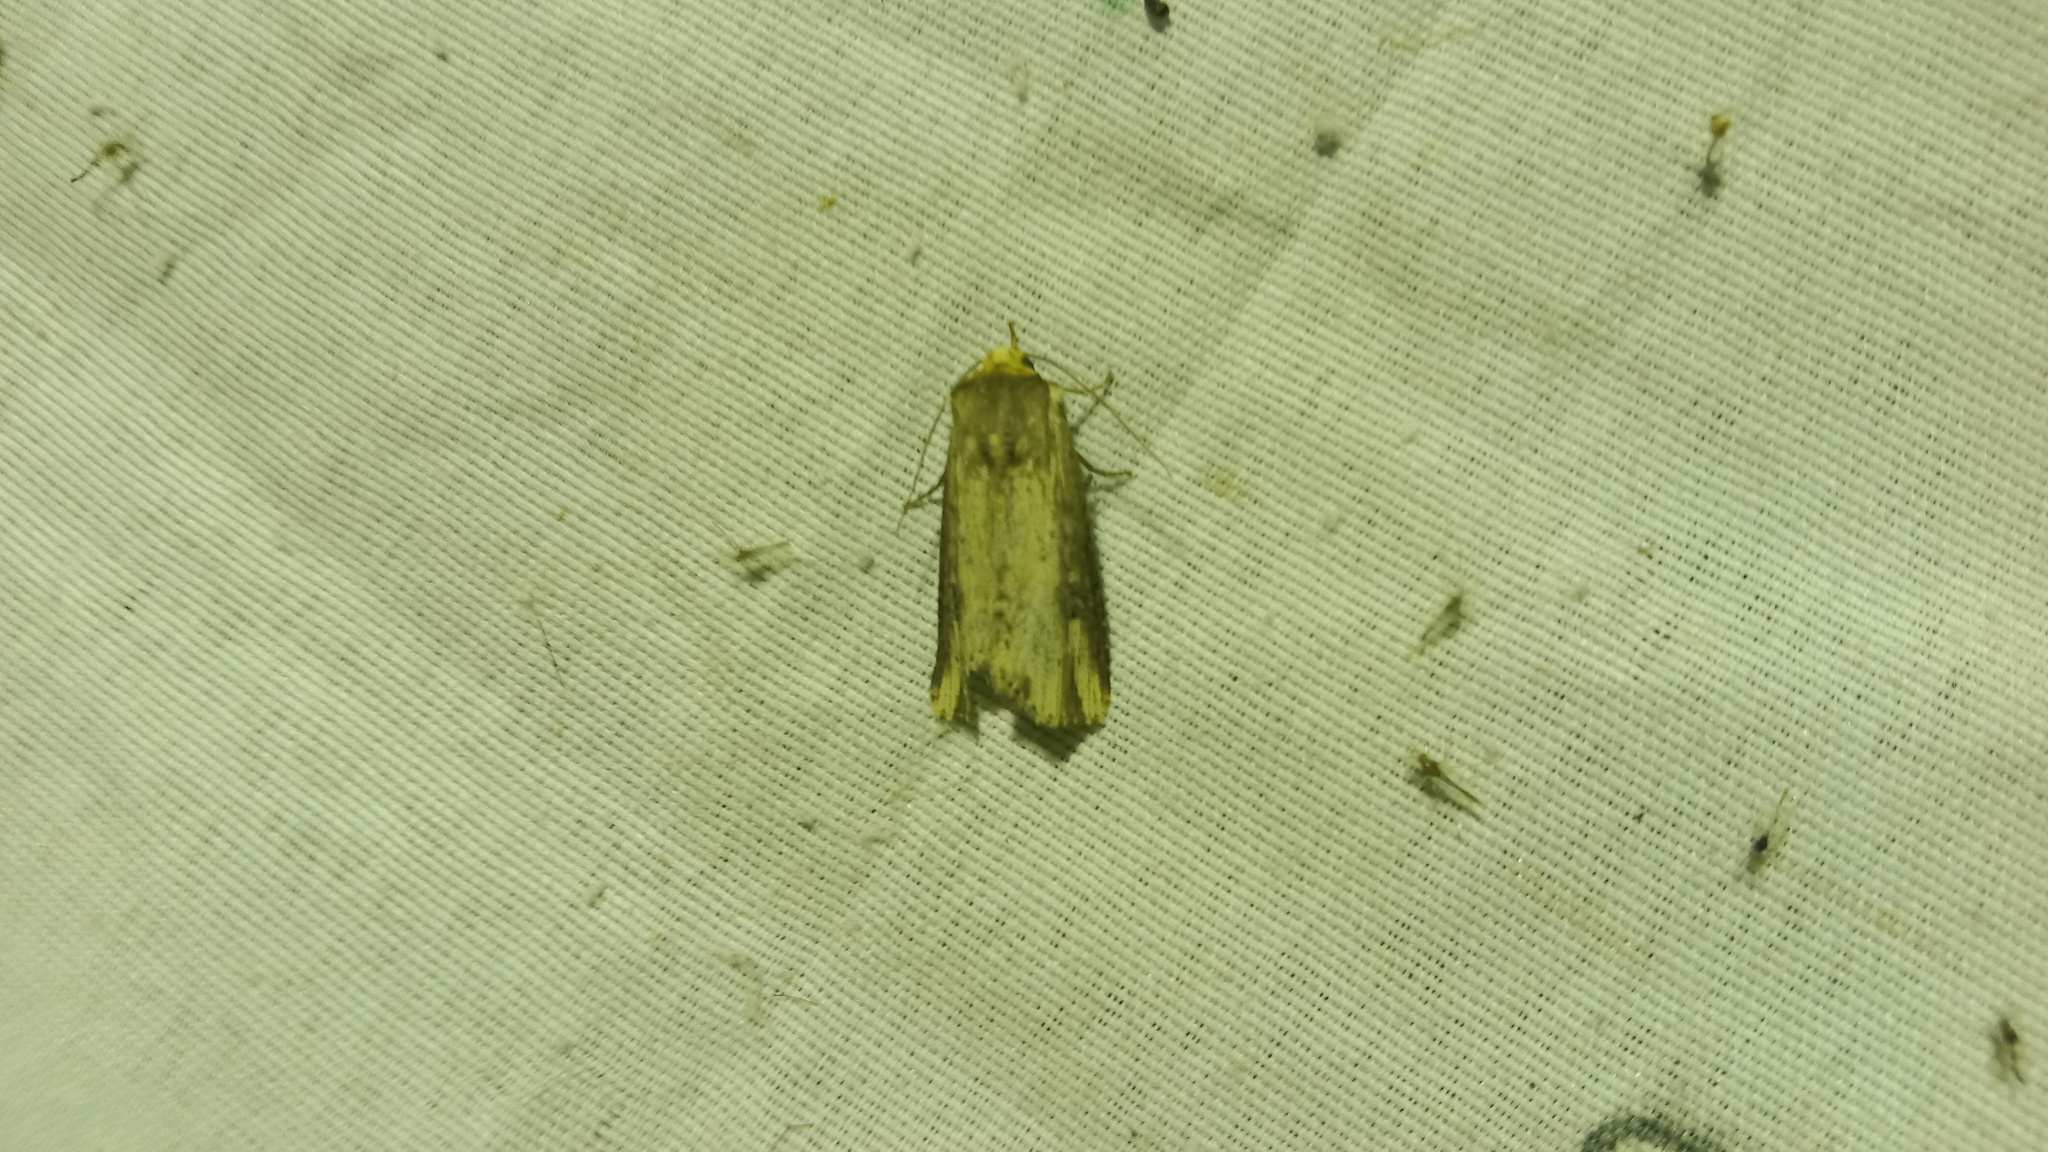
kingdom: Animalia
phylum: Arthropoda
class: Insecta
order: Lepidoptera
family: Noctuidae
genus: Axylia
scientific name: Axylia putris
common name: Flame
